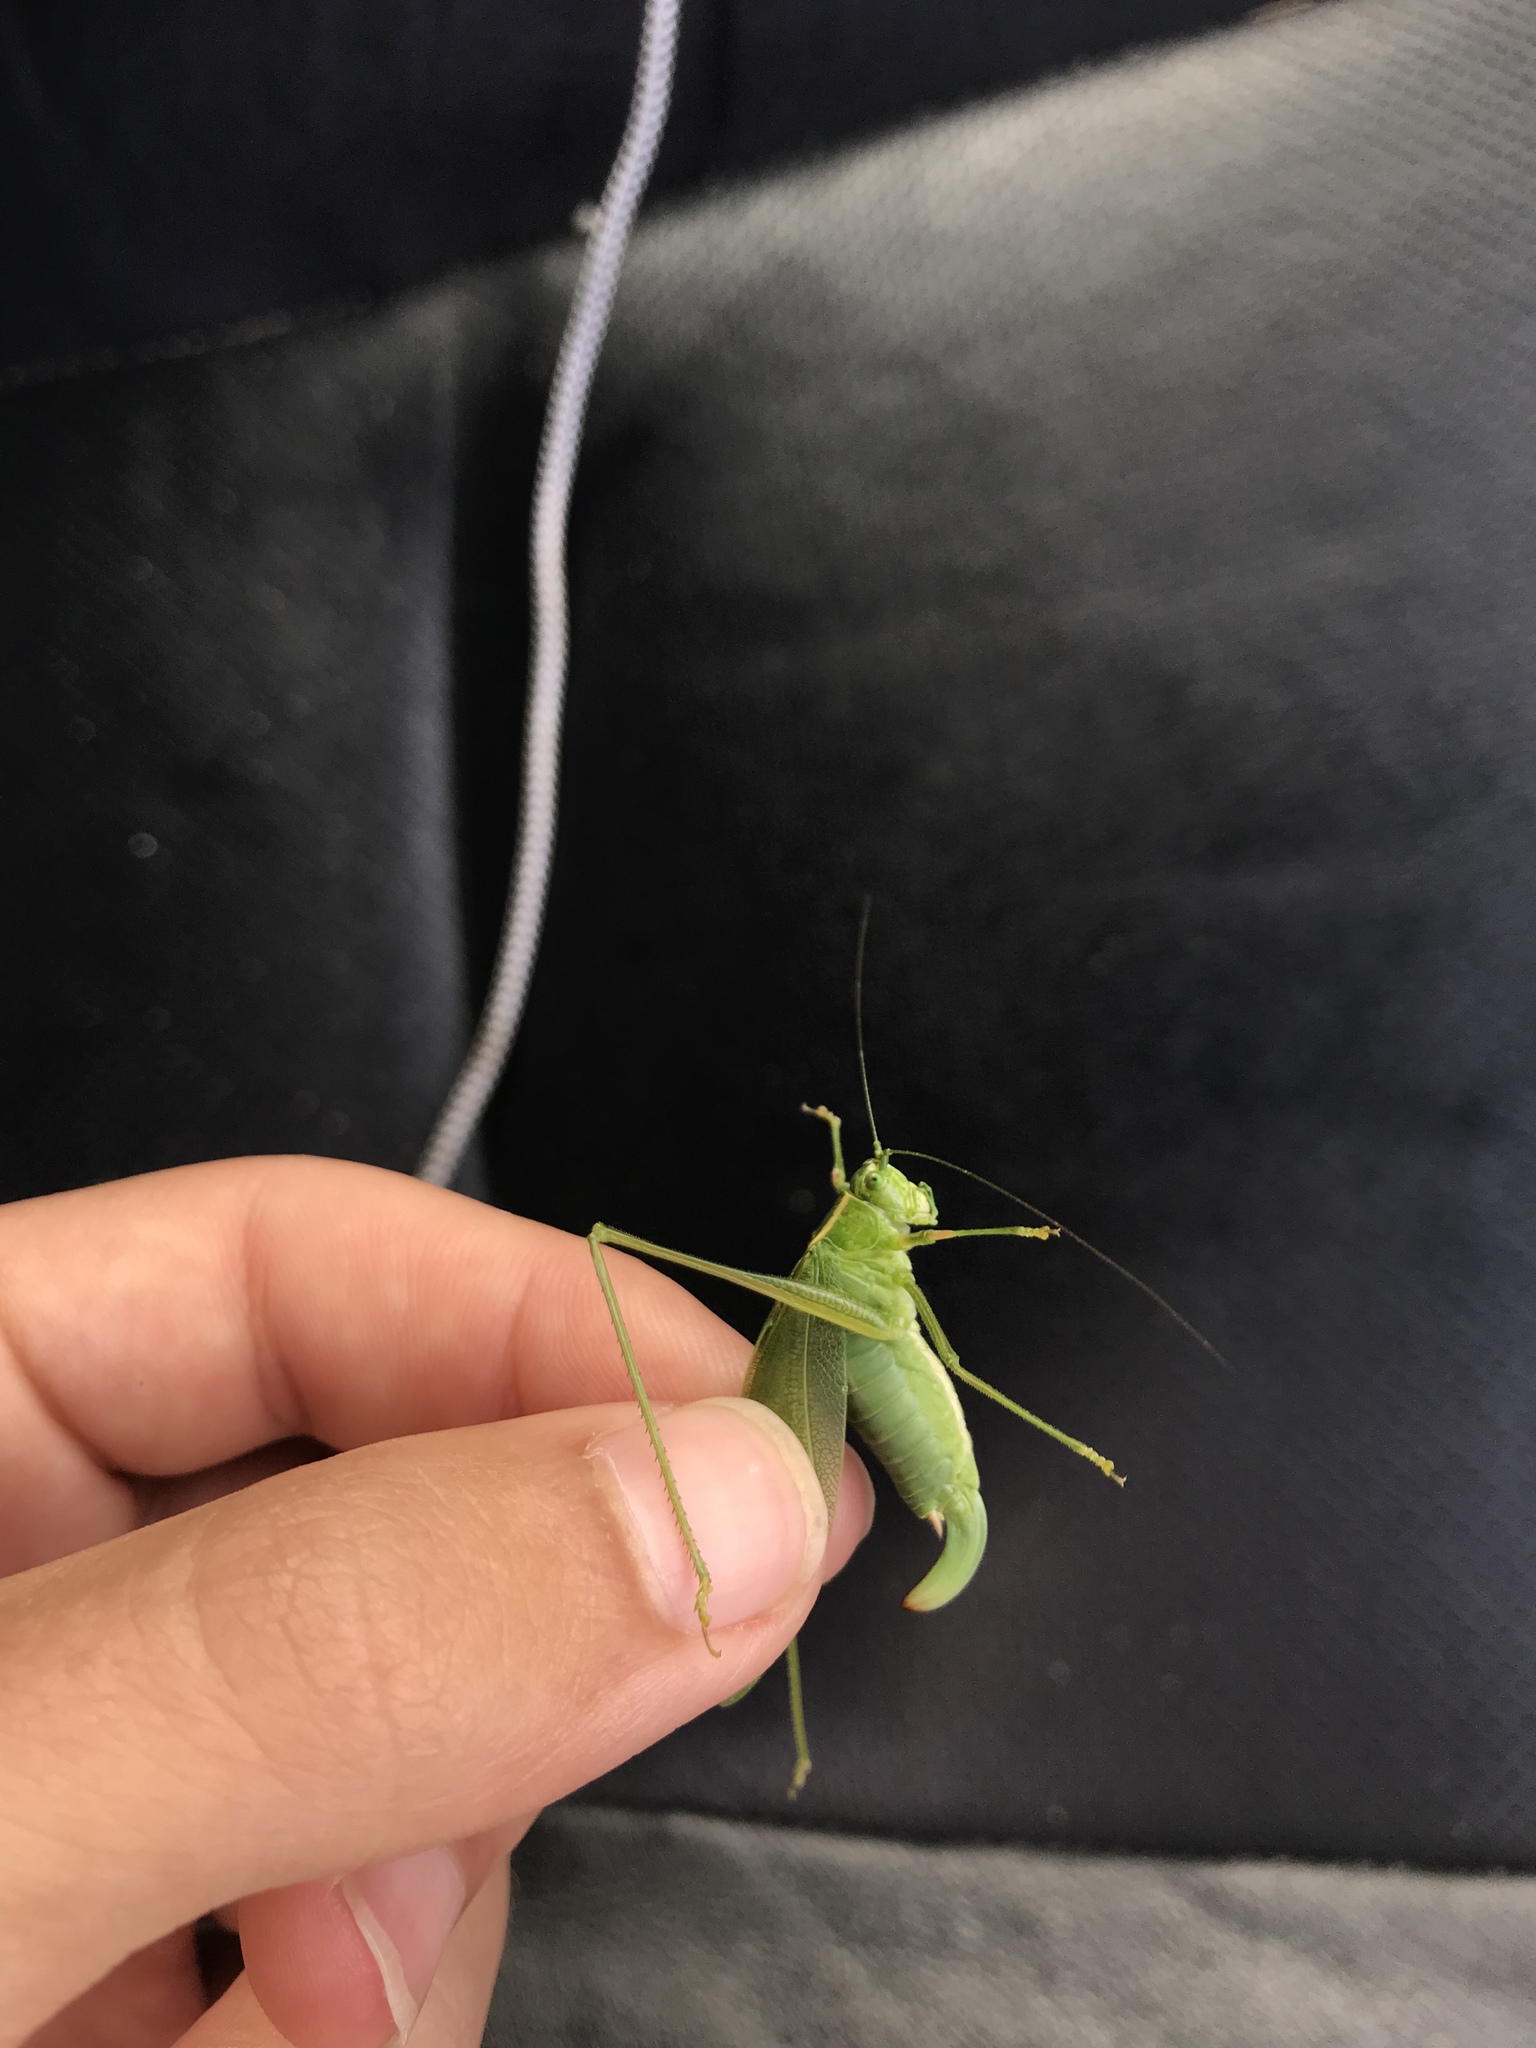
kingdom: Animalia
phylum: Arthropoda
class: Insecta
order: Orthoptera
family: Tettigoniidae
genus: Scudderia
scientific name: Scudderia septentrionalis
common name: Northern bush-katydid
